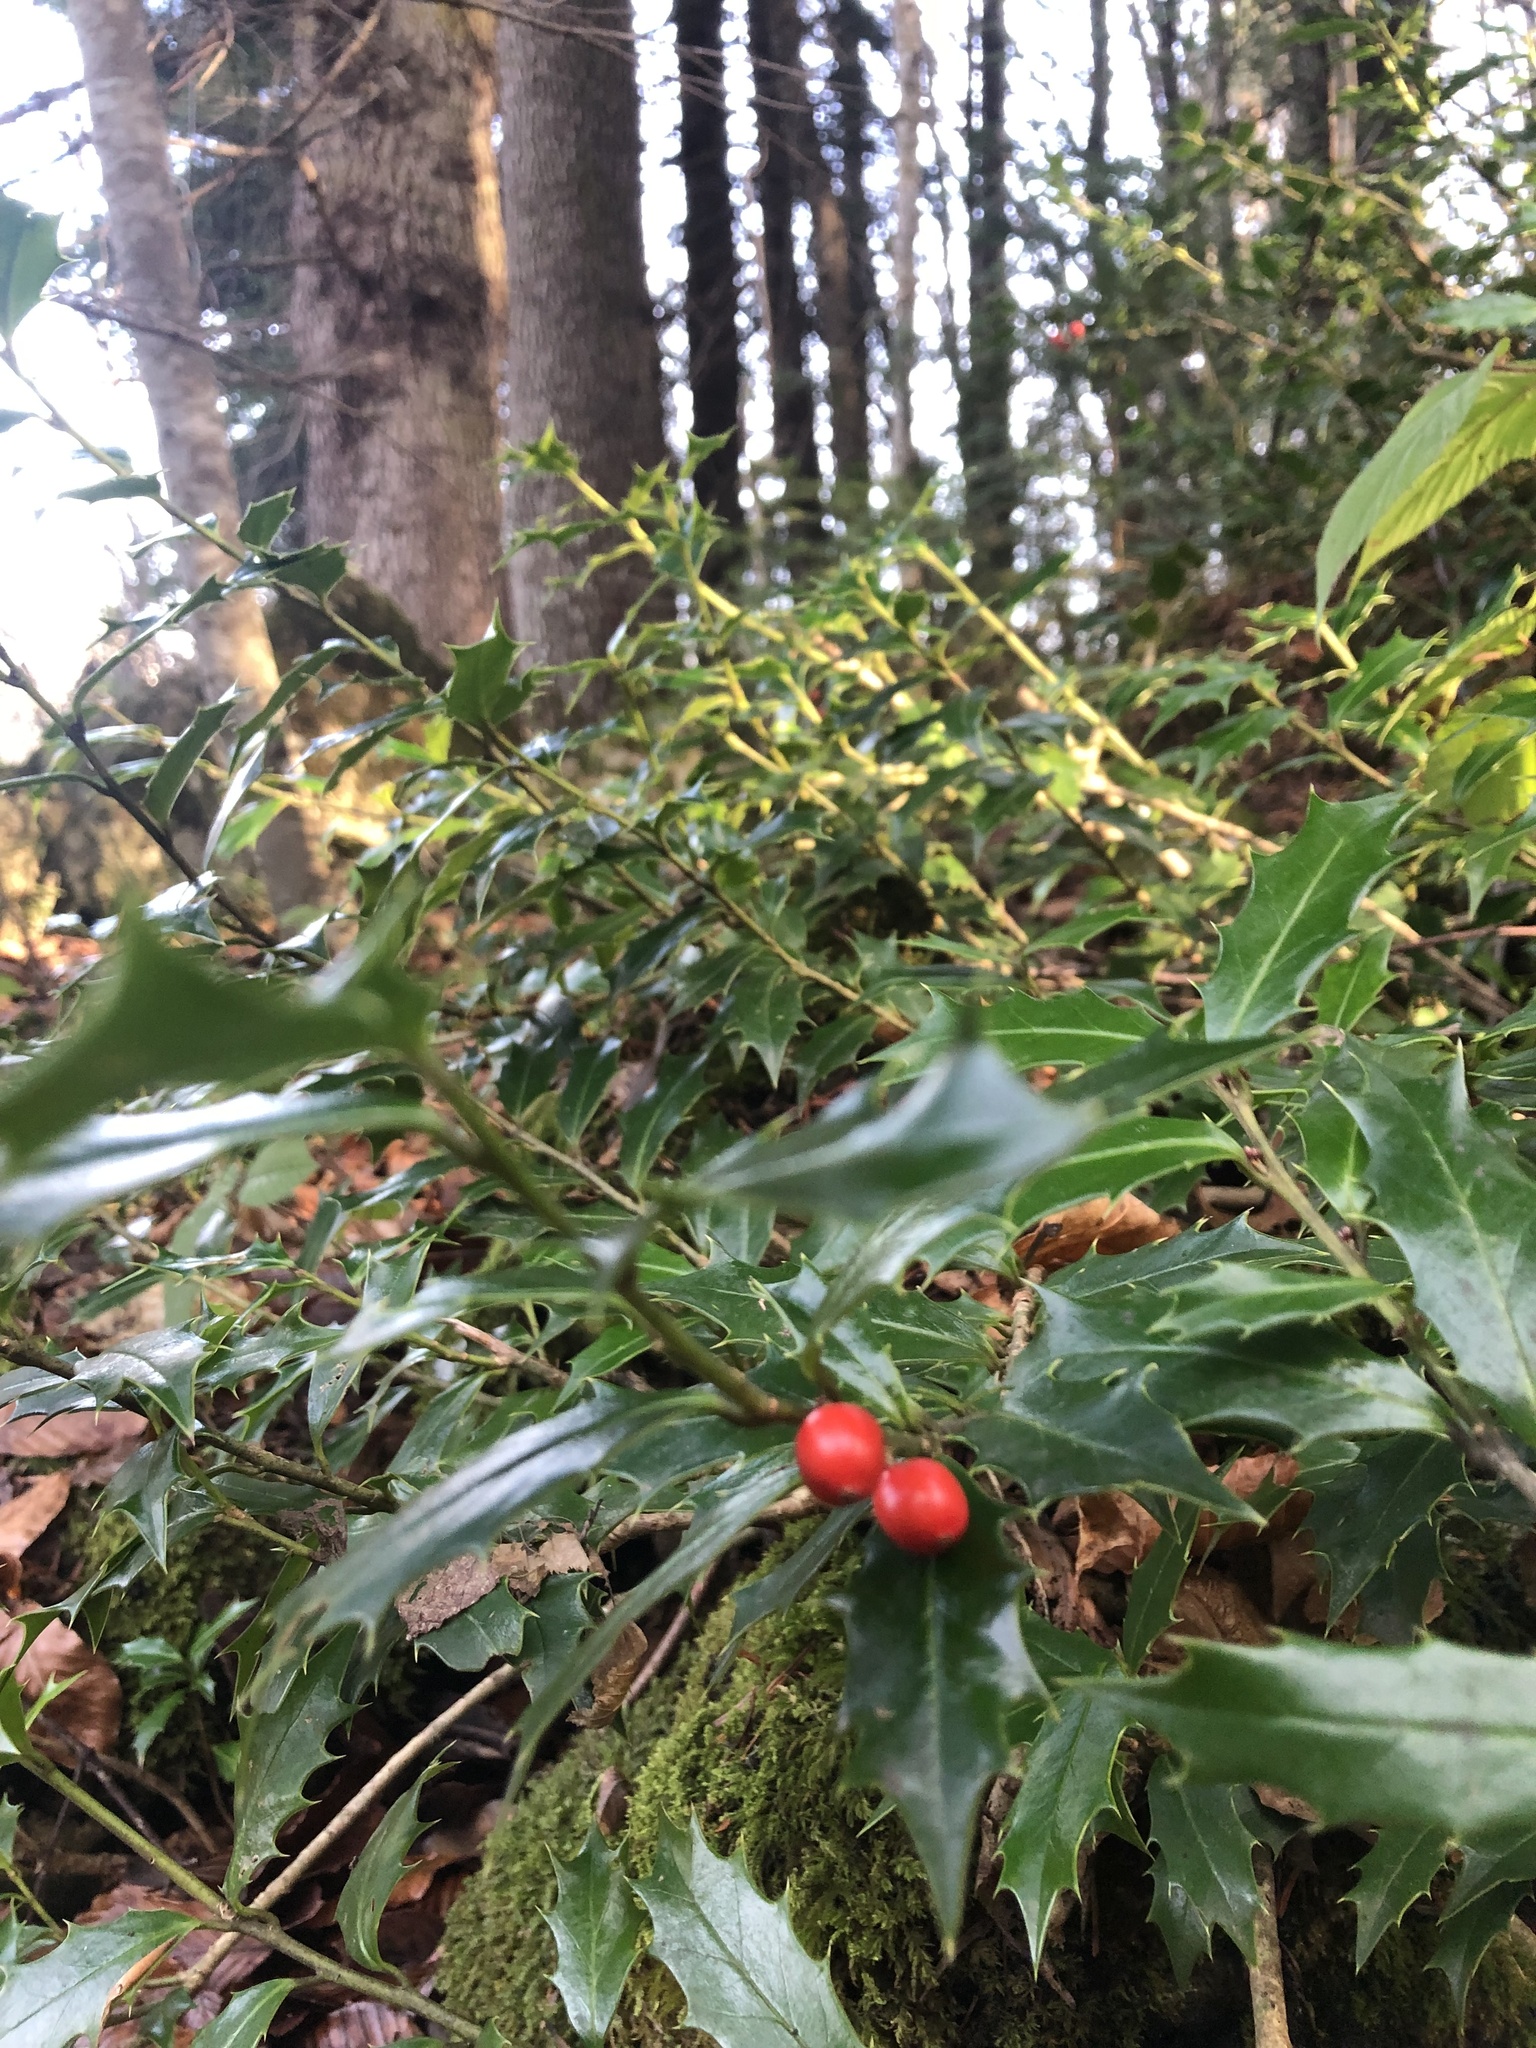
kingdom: Plantae
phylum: Tracheophyta
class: Magnoliopsida
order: Aquifoliales
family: Aquifoliaceae
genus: Ilex
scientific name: Ilex colchica
